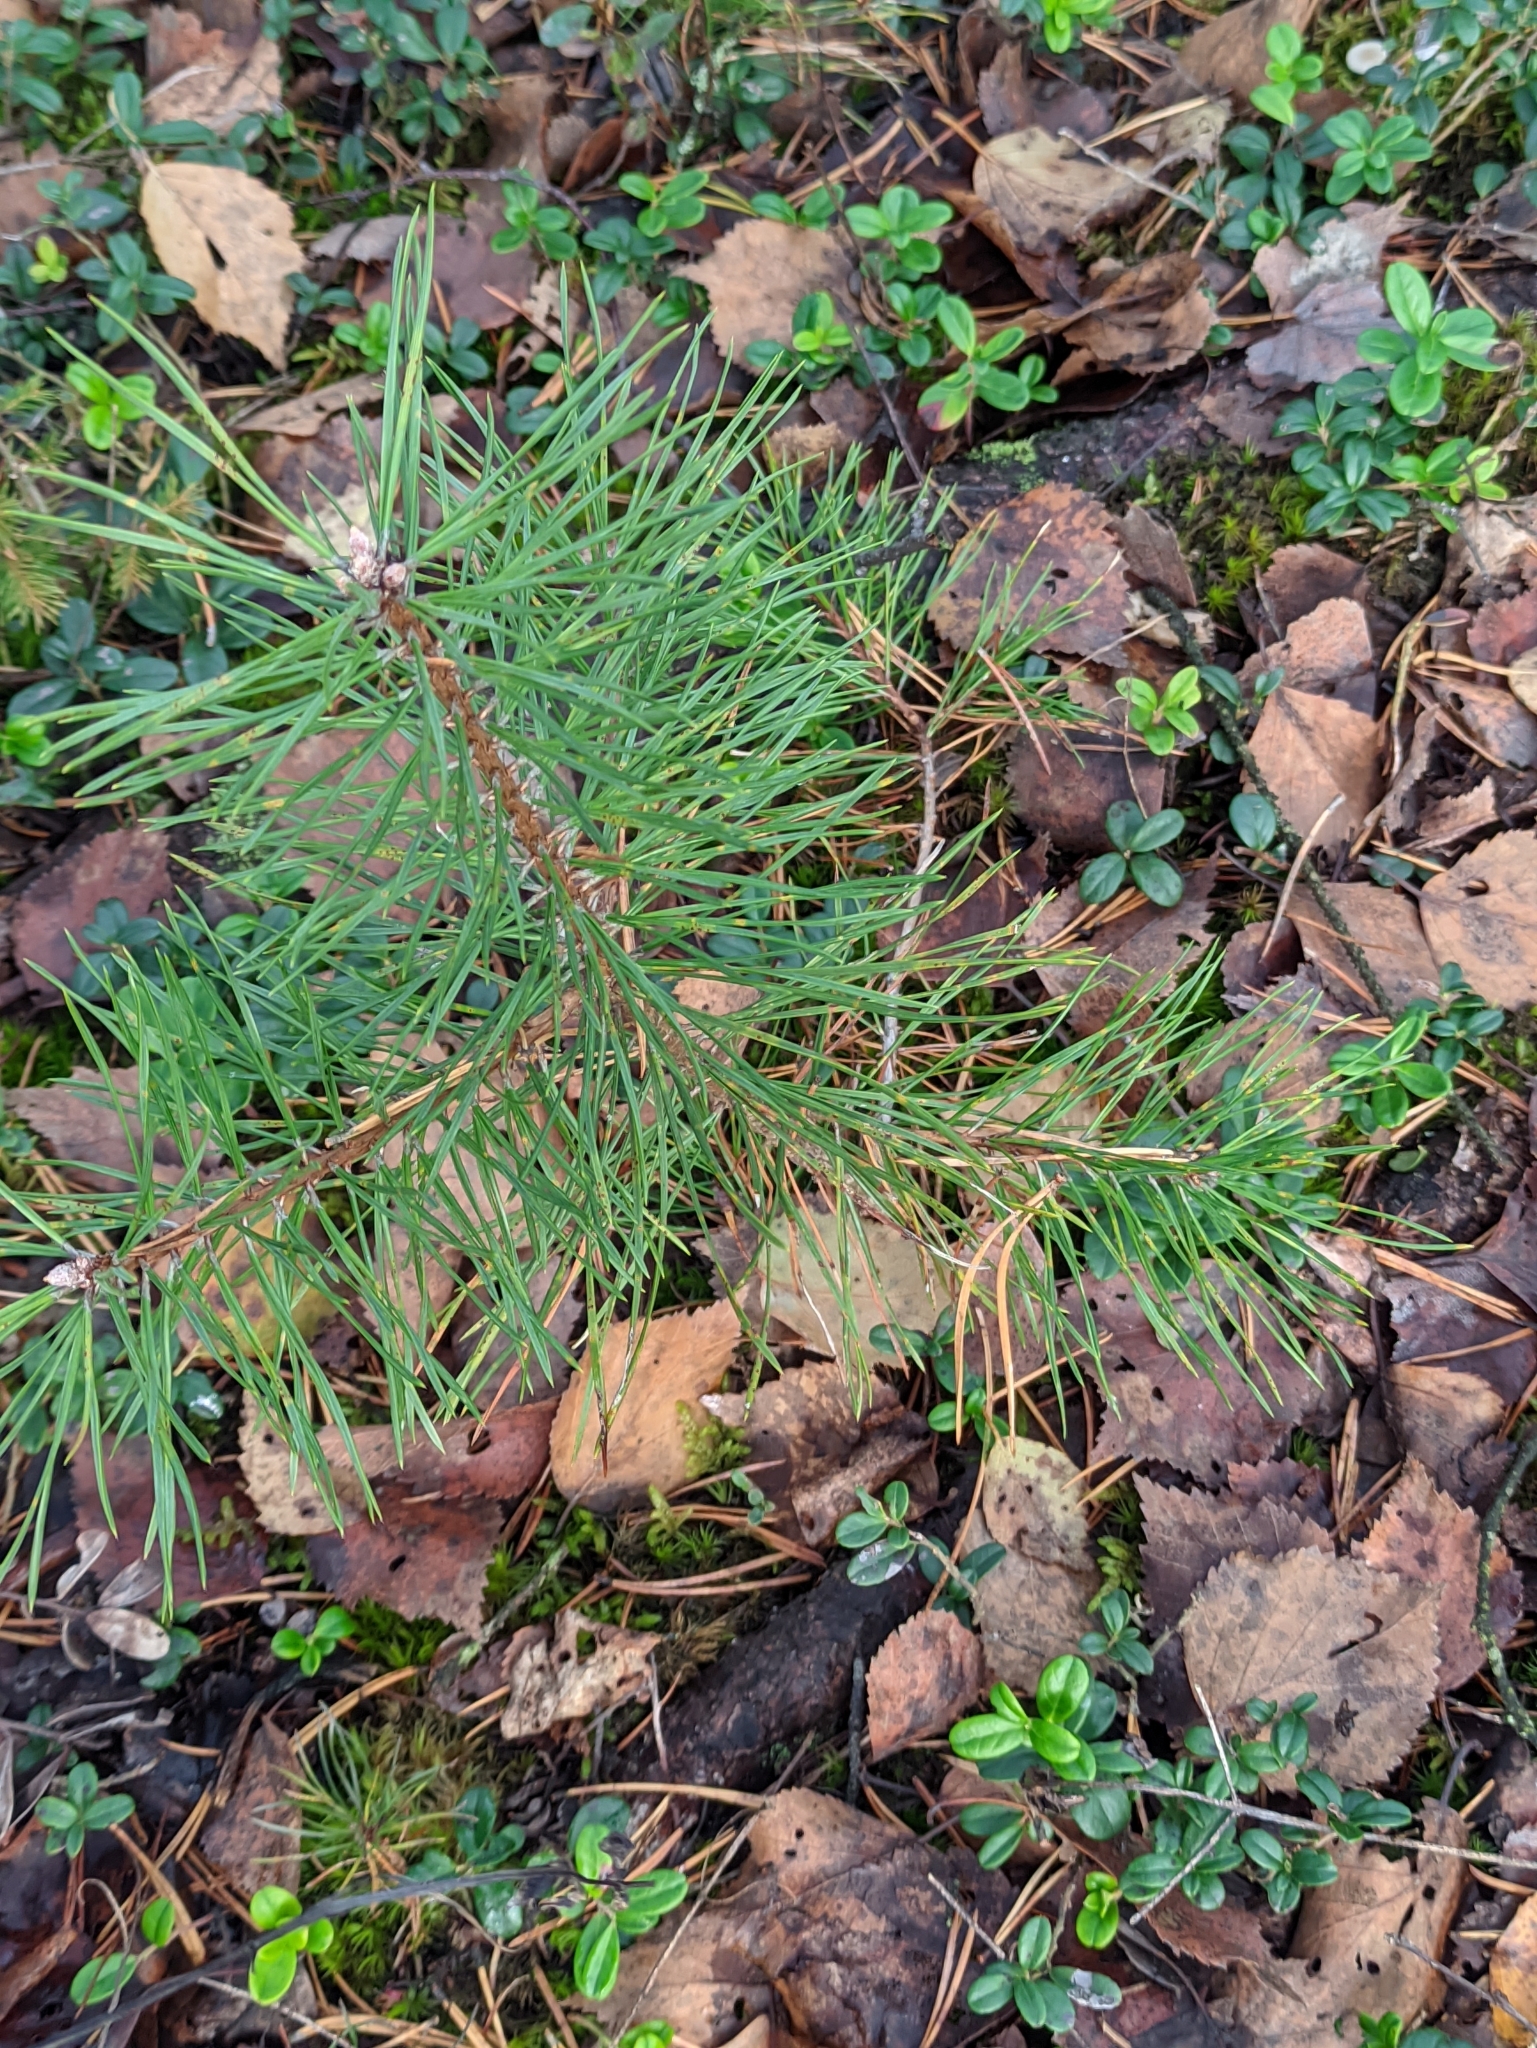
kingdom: Plantae
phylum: Tracheophyta
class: Pinopsida
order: Pinales
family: Pinaceae
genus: Pinus
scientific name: Pinus sylvestris
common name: Scots pine
